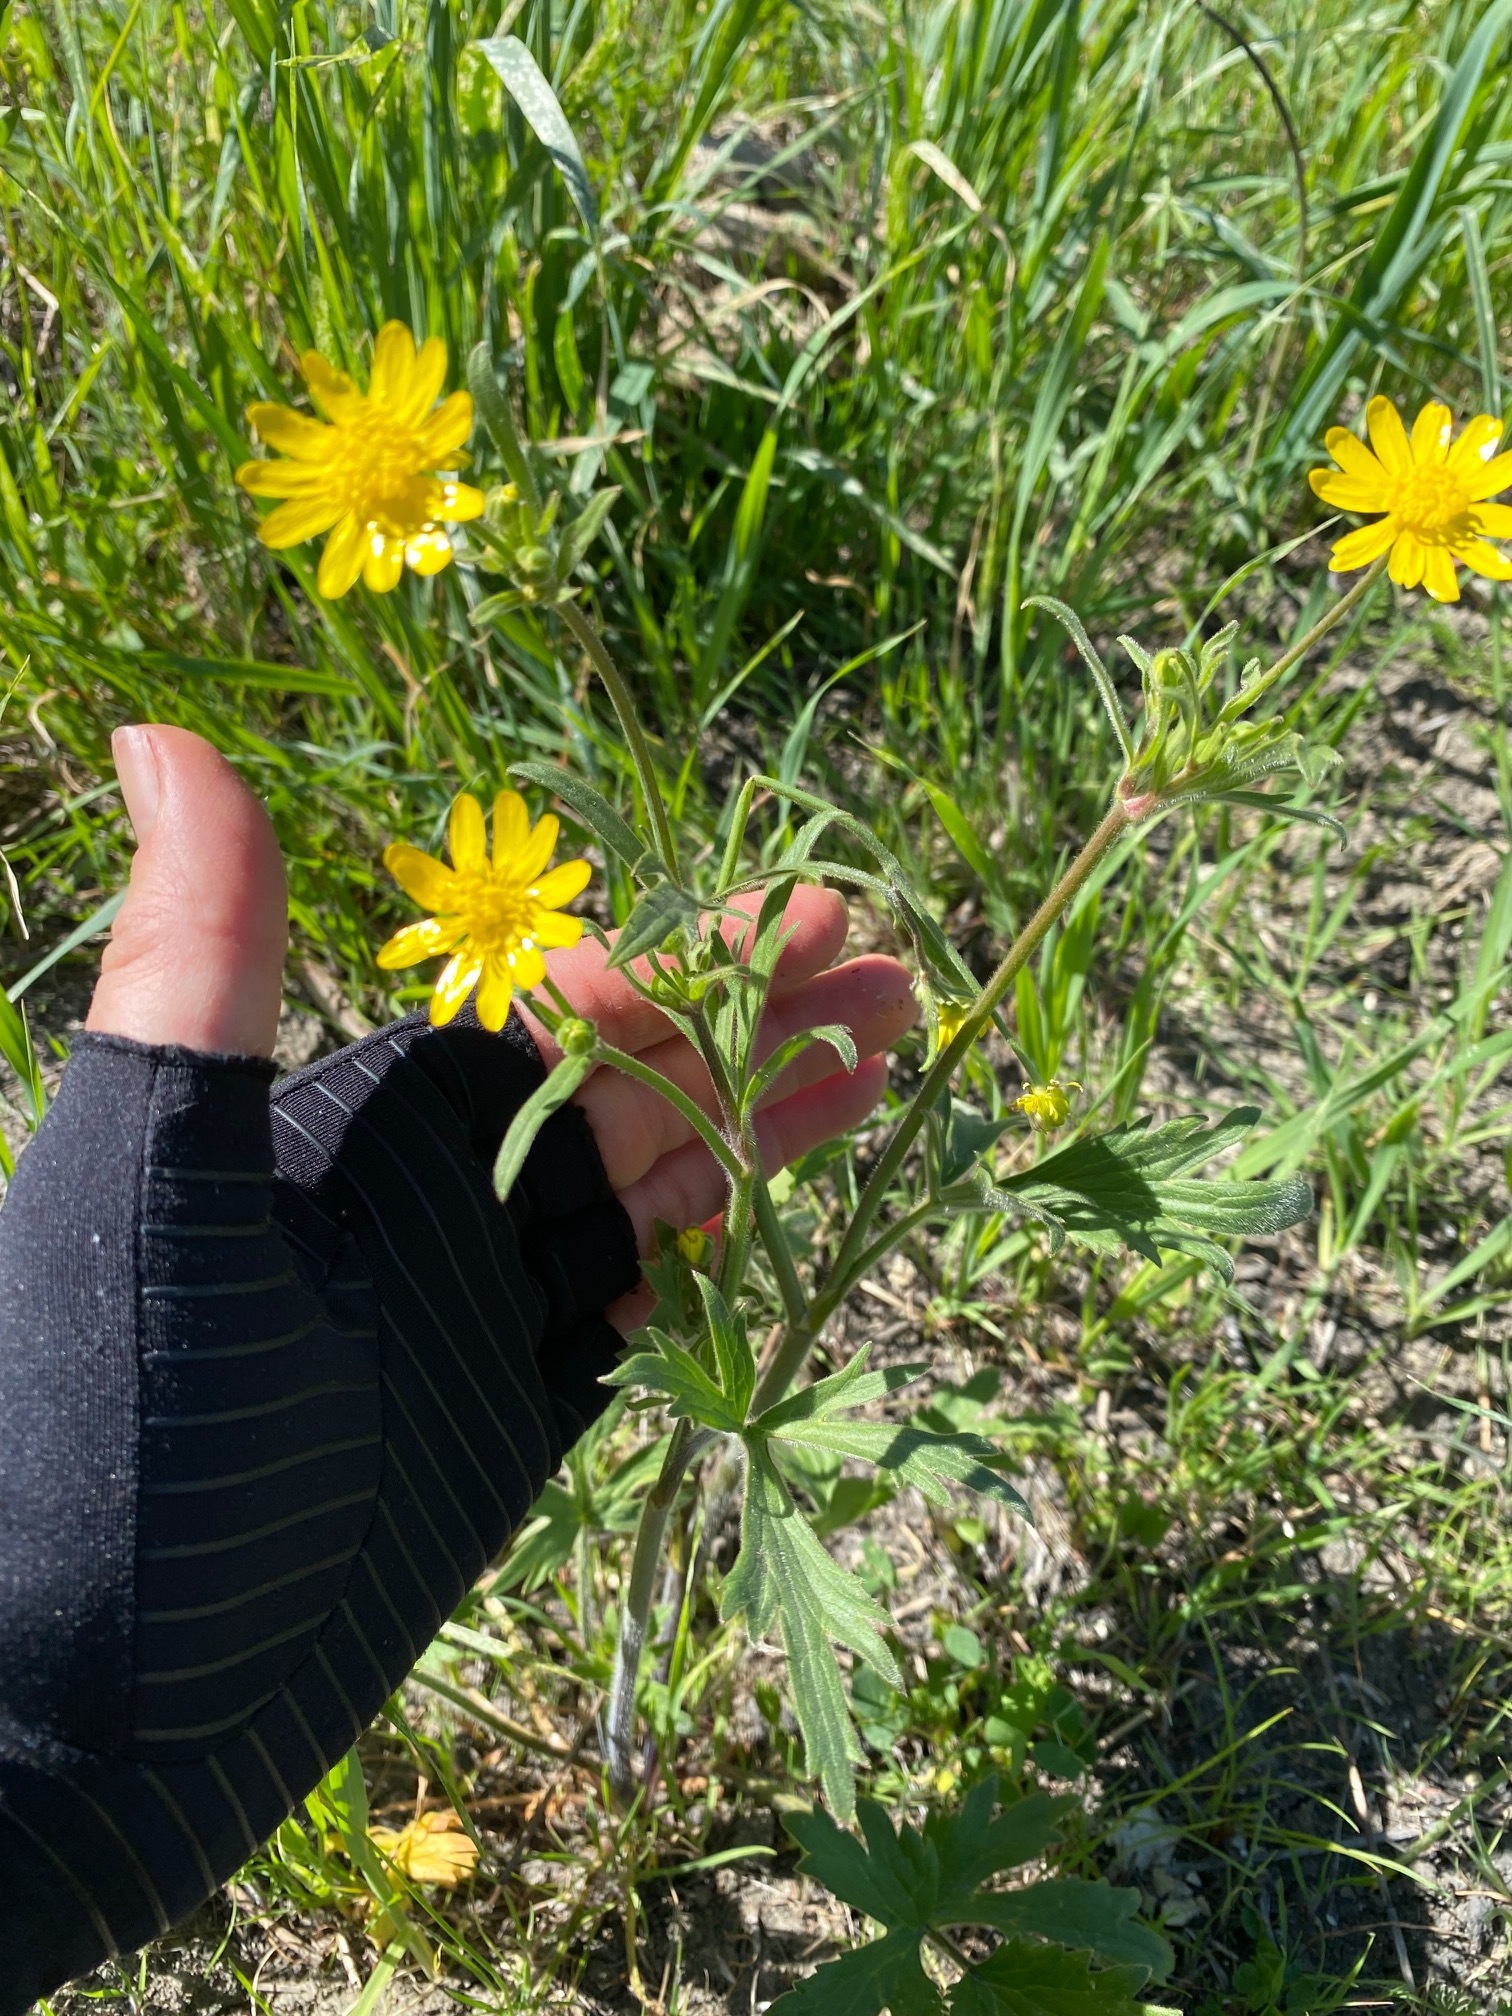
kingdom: Plantae
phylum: Tracheophyta
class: Magnoliopsida
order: Ranunculales
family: Ranunculaceae
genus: Ranunculus
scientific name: Ranunculus californicus
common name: California buttercup
